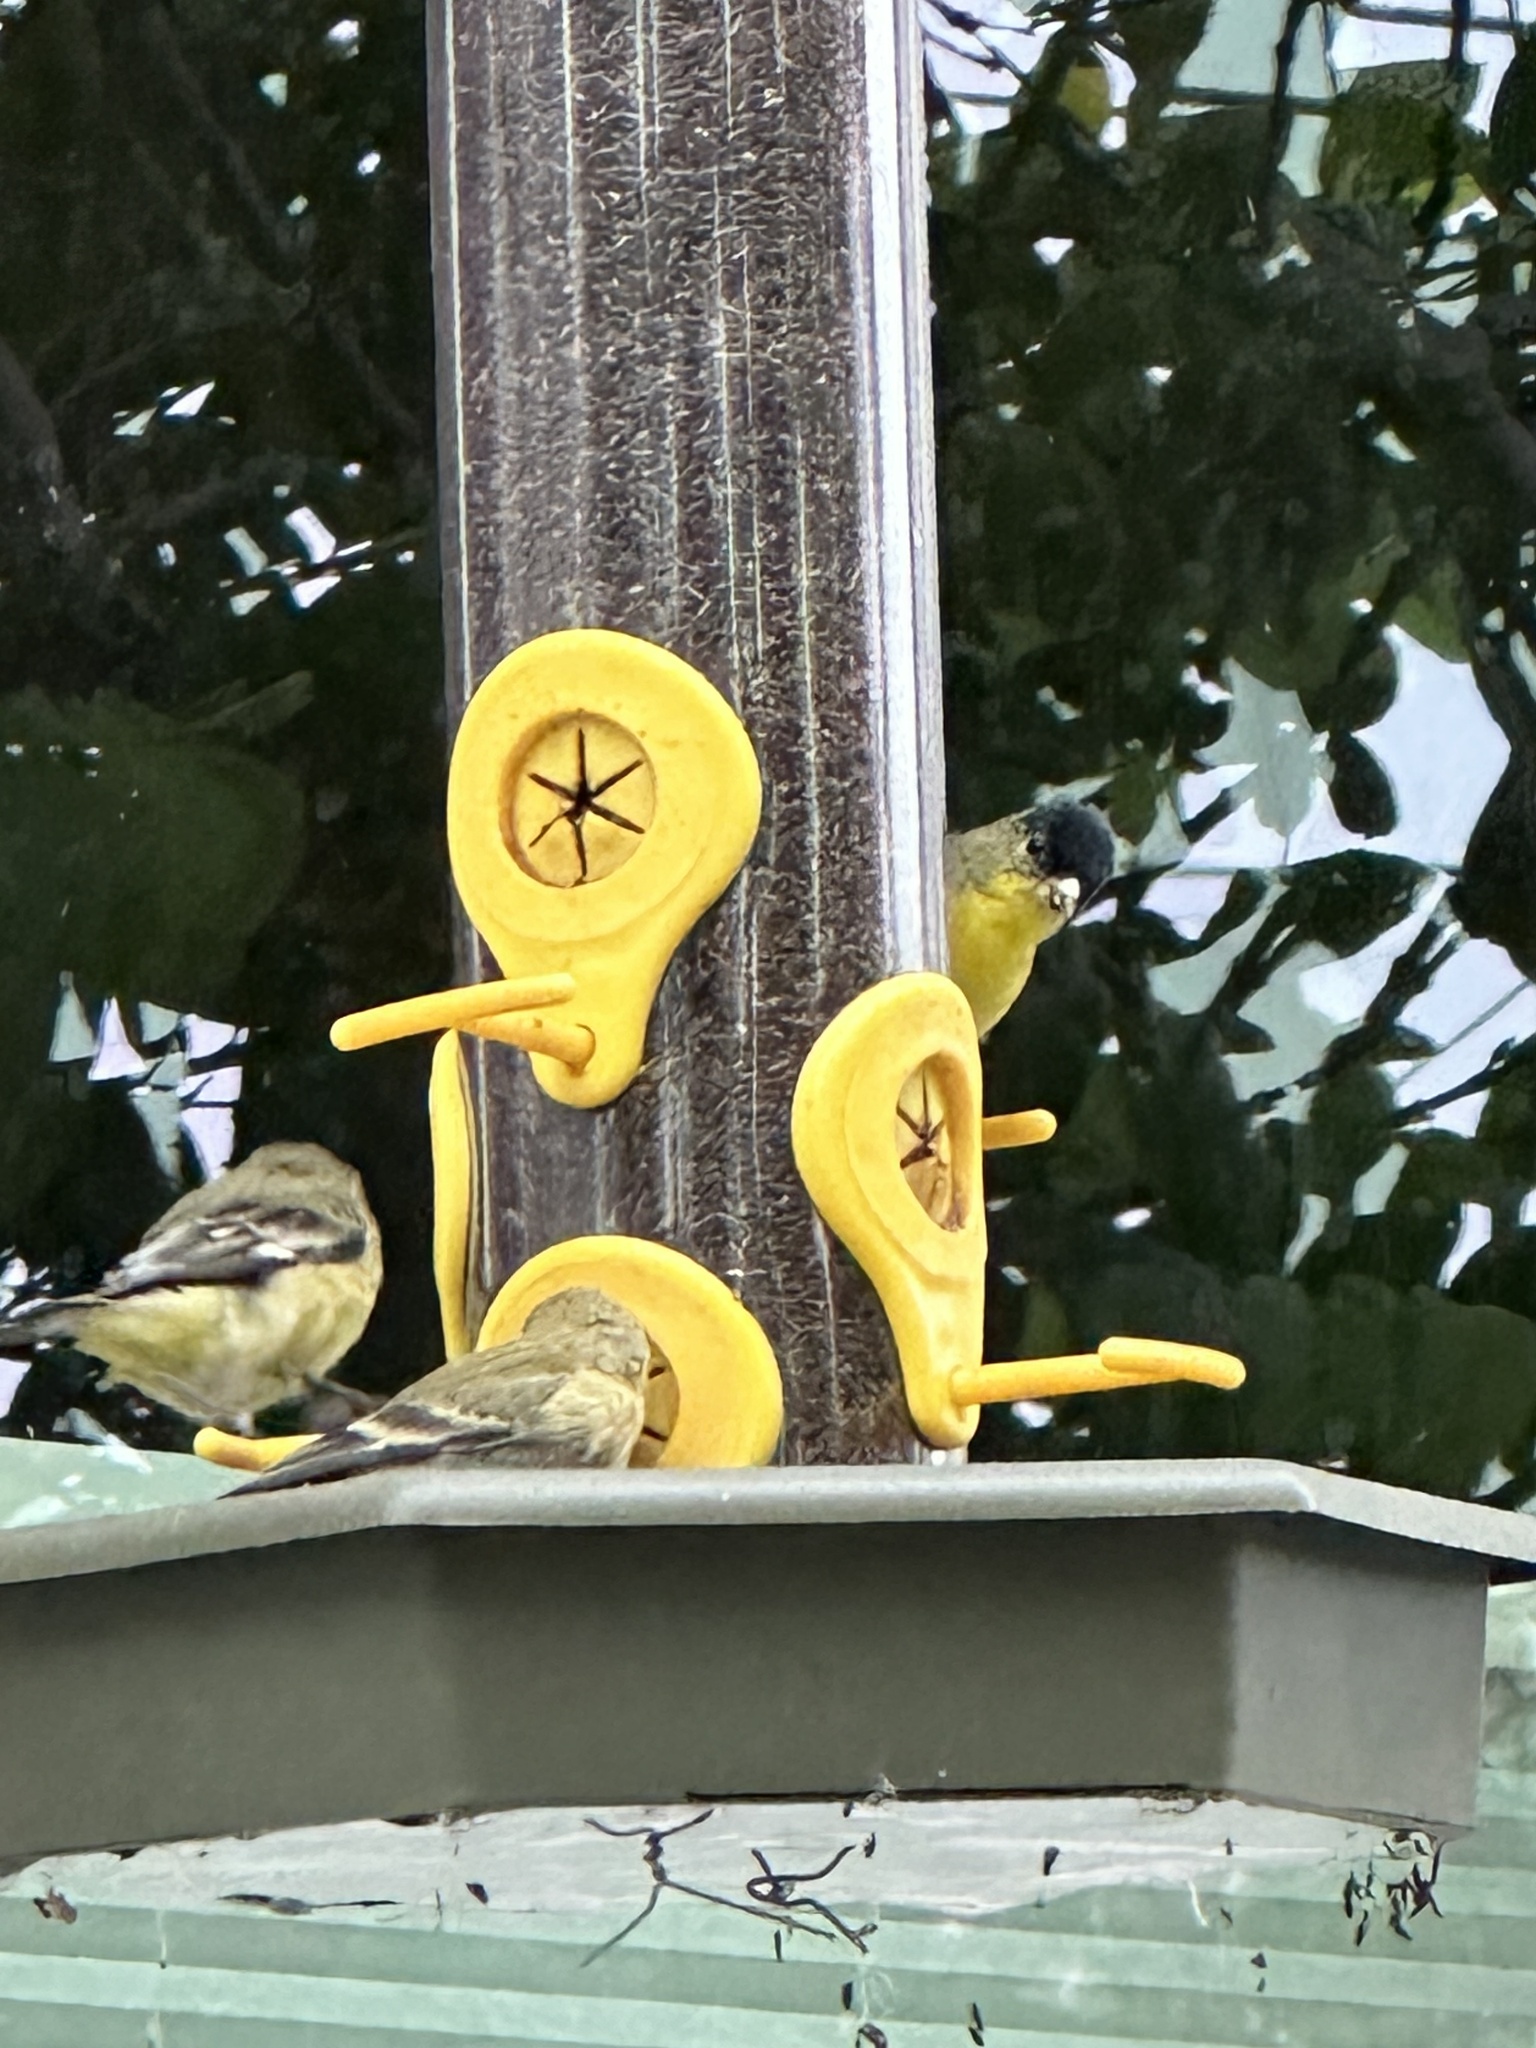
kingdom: Animalia
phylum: Chordata
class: Aves
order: Passeriformes
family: Fringillidae
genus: Spinus
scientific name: Spinus psaltria
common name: Lesser goldfinch
